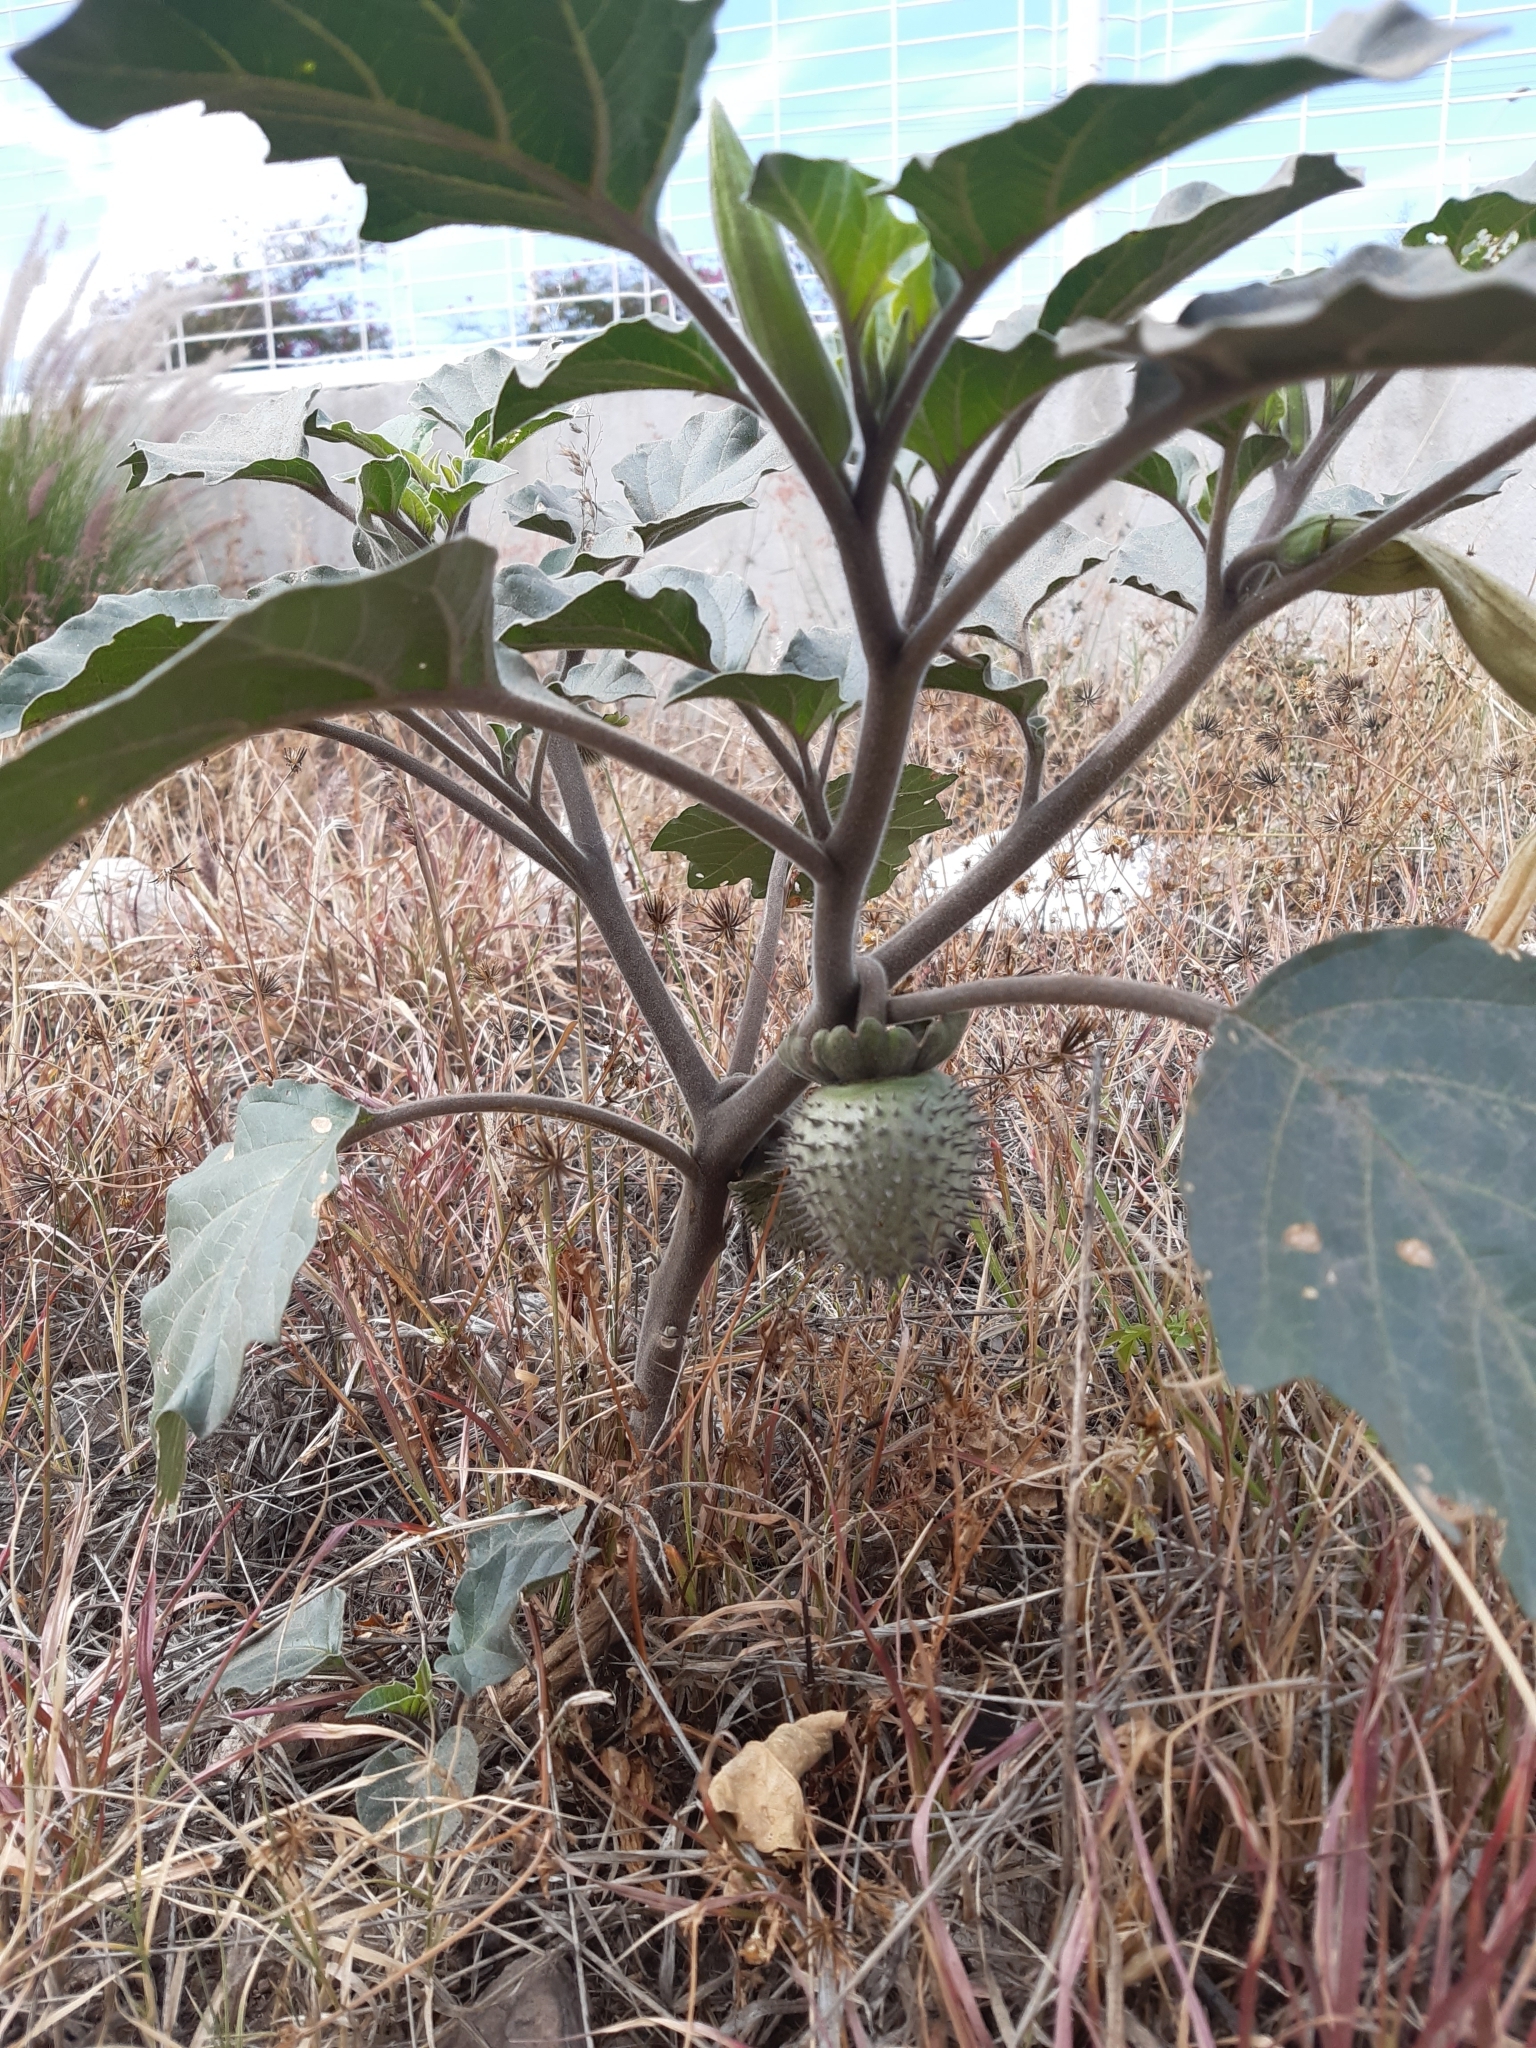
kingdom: Plantae
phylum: Tracheophyta
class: Magnoliopsida
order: Solanales
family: Solanaceae
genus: Datura
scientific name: Datura innoxia
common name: Downy thorn-apple
